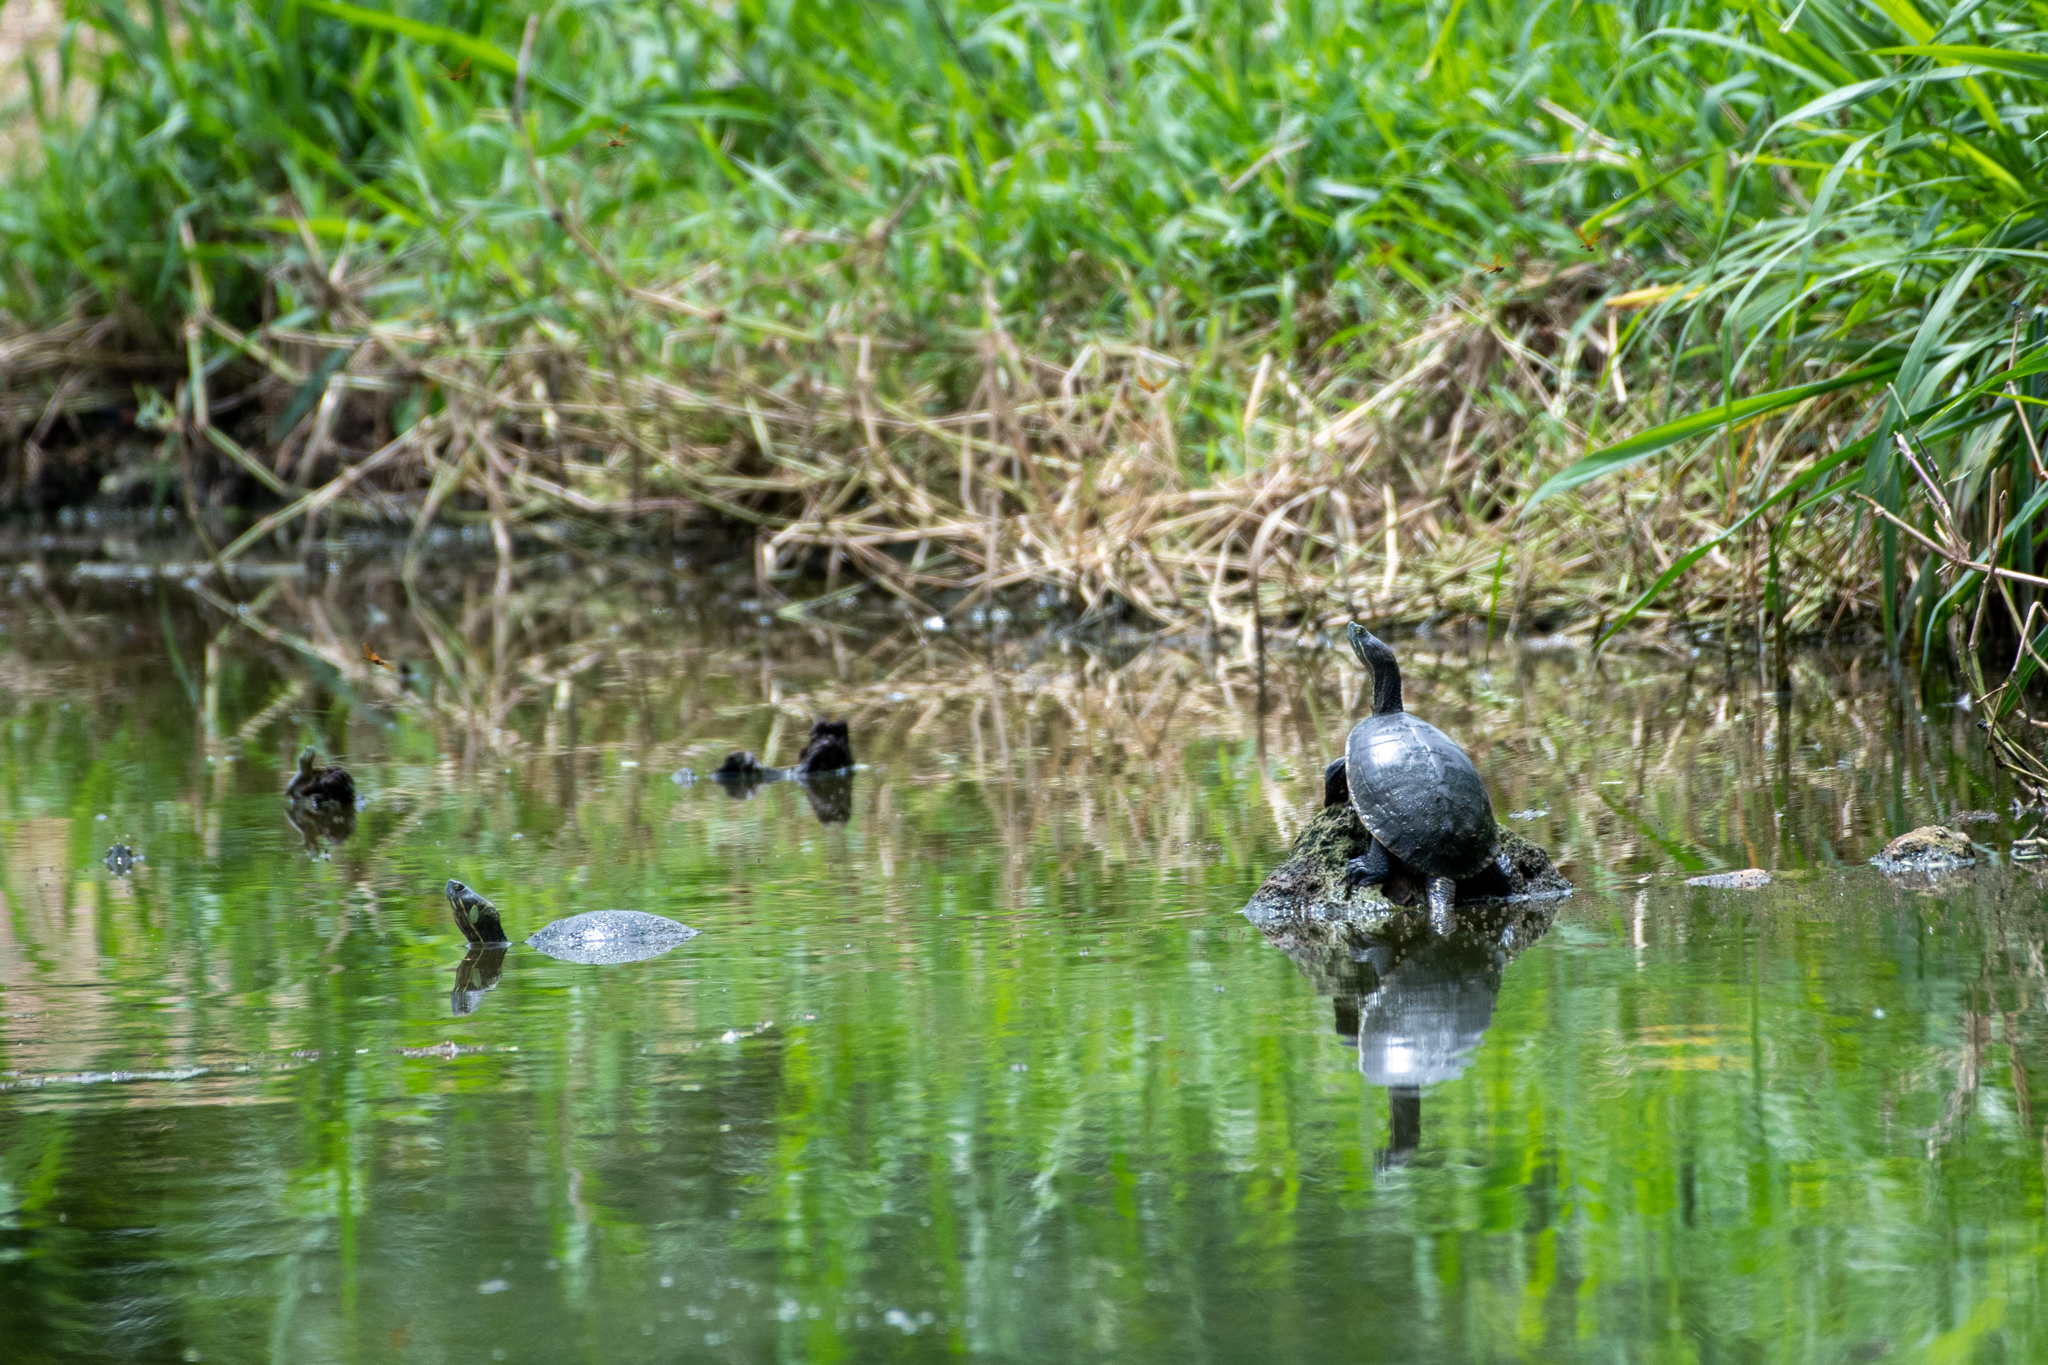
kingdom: Animalia
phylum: Chordata
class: Testudines
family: Emydidae
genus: Trachemys
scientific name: Trachemys venusta
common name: Mesoamerican slider
